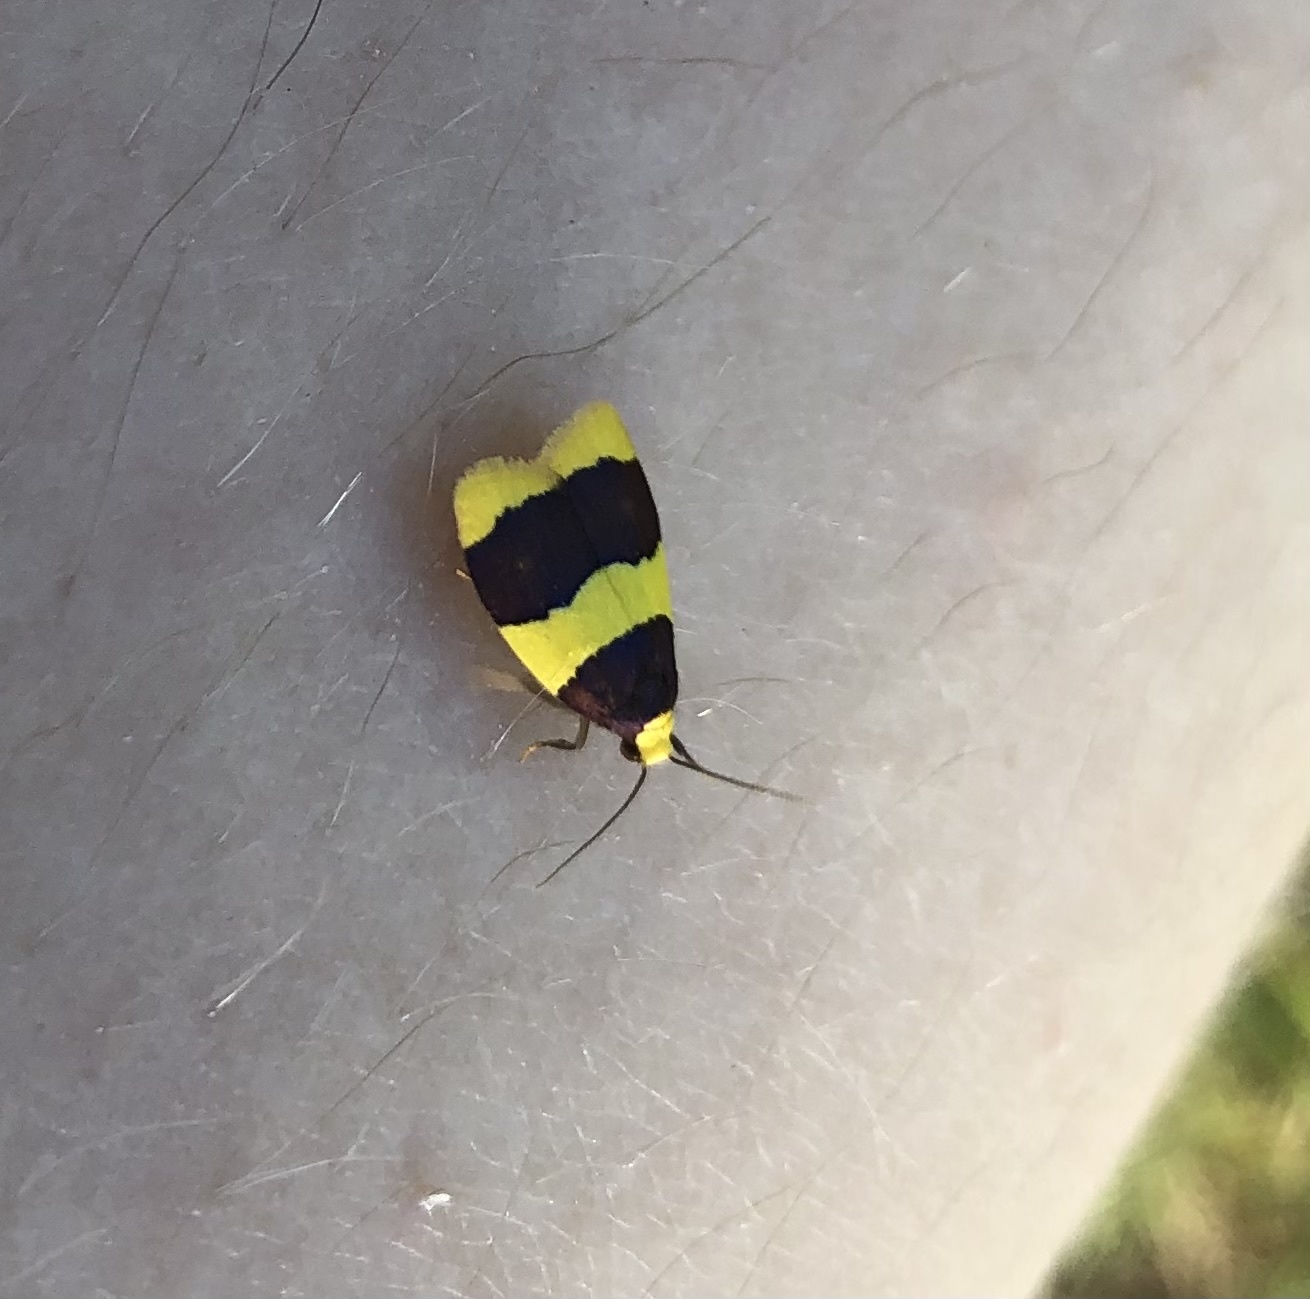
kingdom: Animalia
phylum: Arthropoda
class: Insecta
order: Lepidoptera
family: Erebidae
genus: Heterallactis
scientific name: Heterallactis microchrysa
